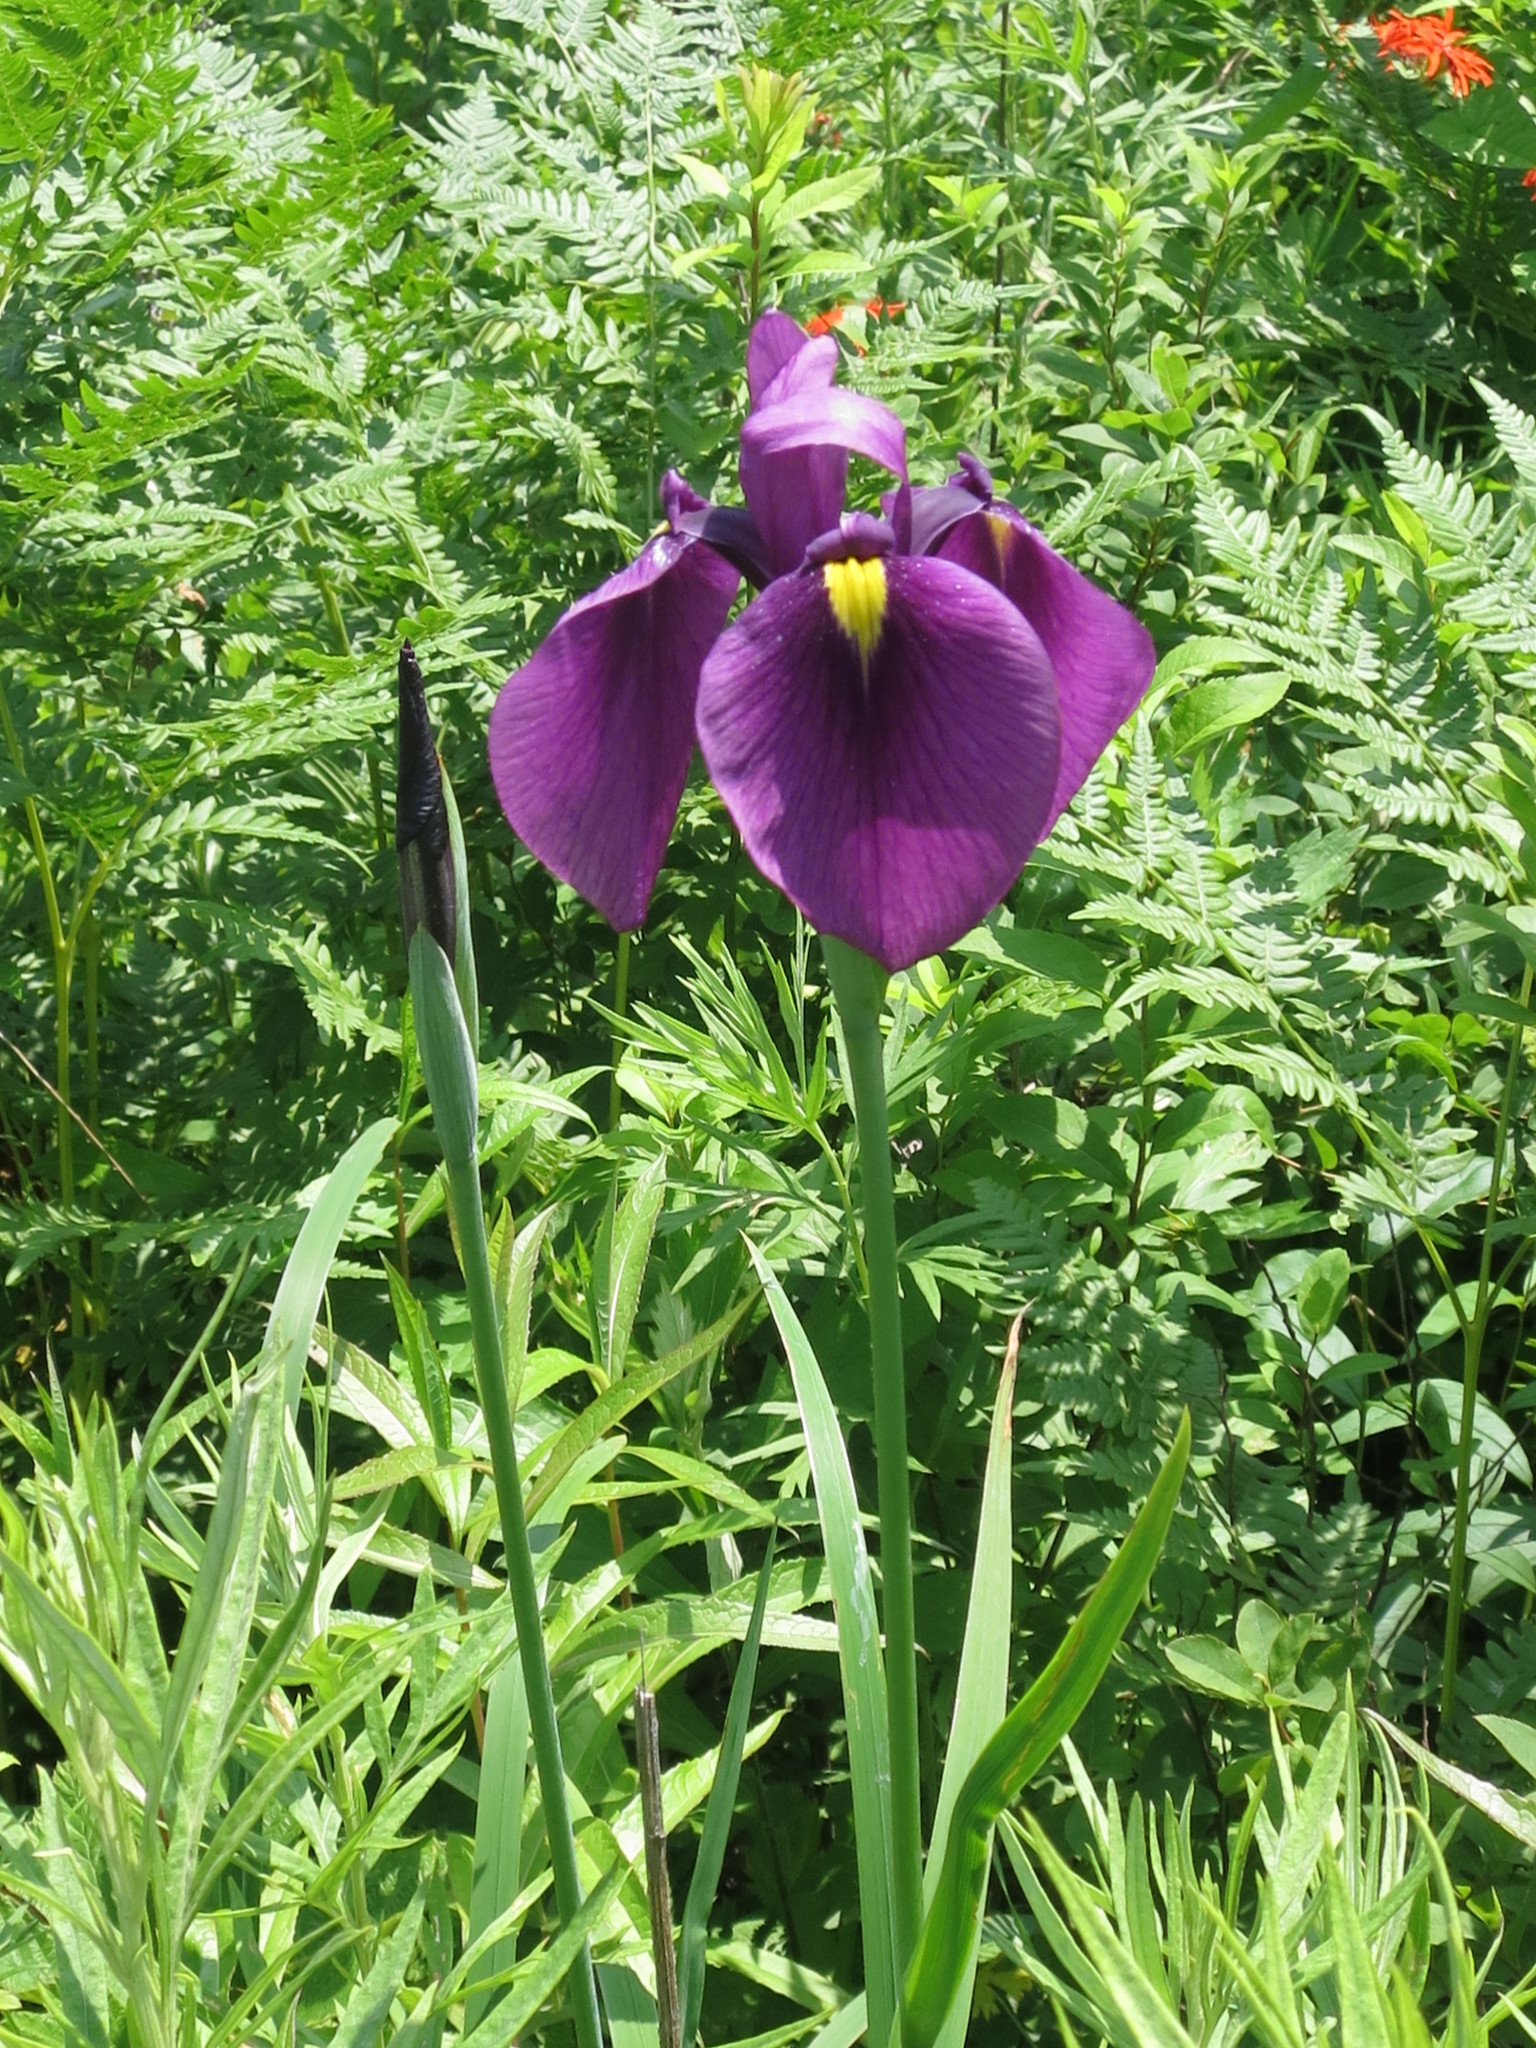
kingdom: Plantae
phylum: Tracheophyta
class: Liliopsida
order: Asparagales
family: Iridaceae
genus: Iris
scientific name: Iris ensata
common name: Beaked iris
